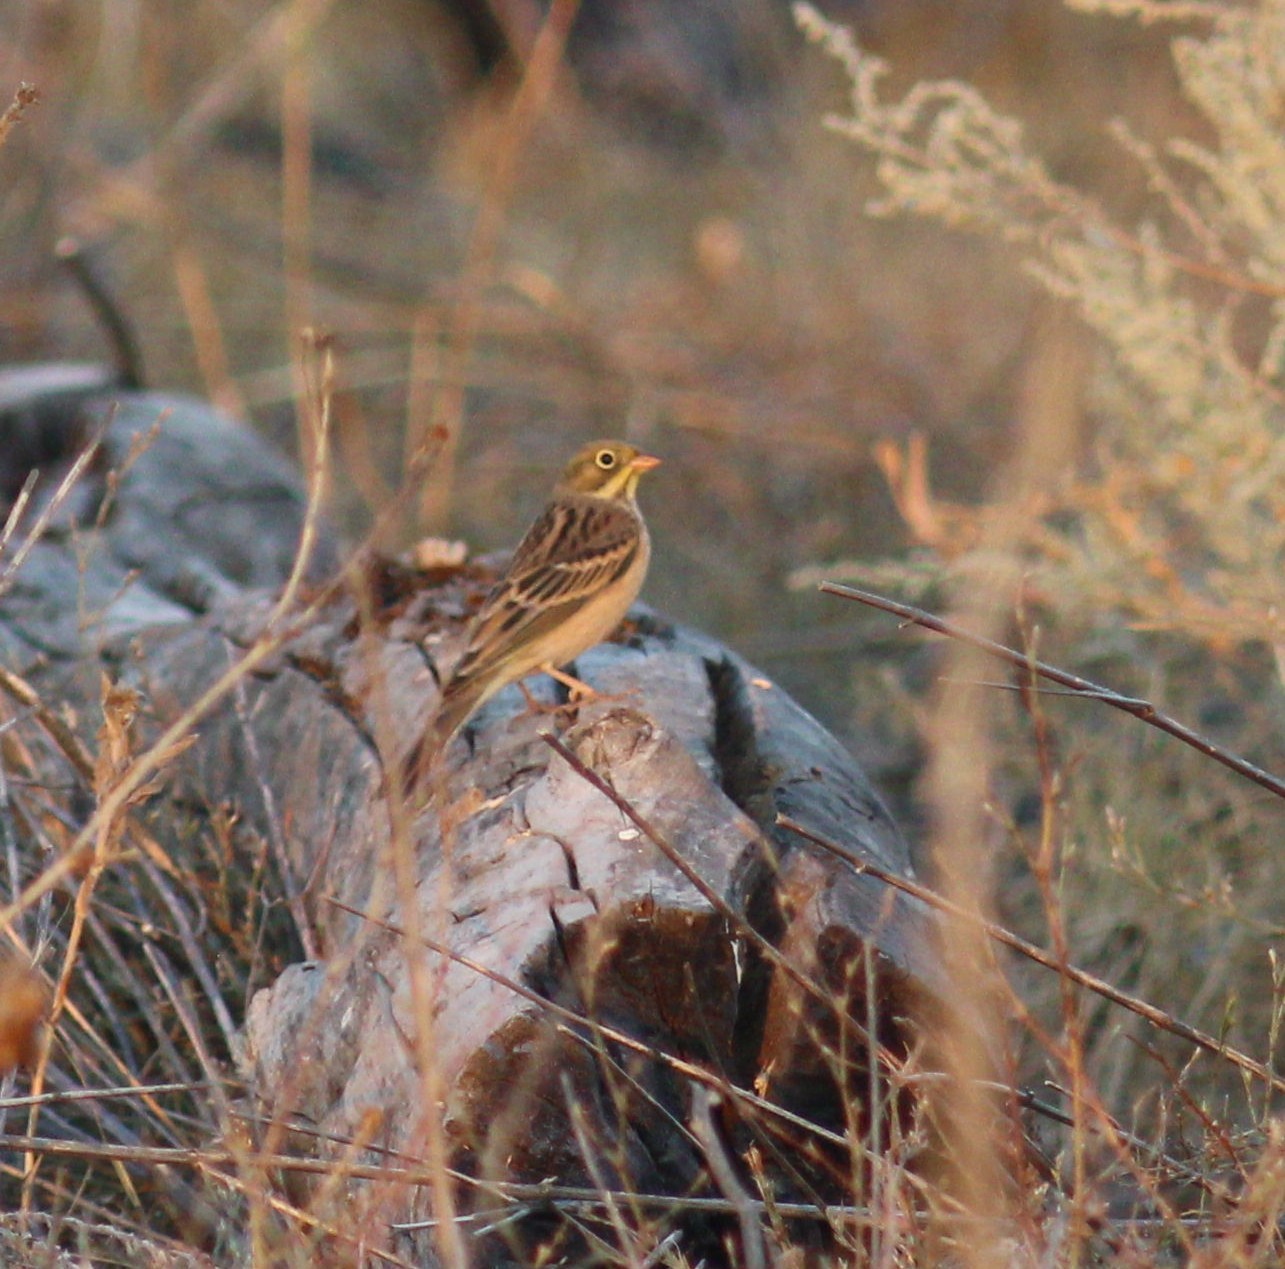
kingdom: Animalia
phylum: Chordata
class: Aves
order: Passeriformes
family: Emberizidae
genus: Emberiza
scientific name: Emberiza hortulana
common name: Ortolan bunting
